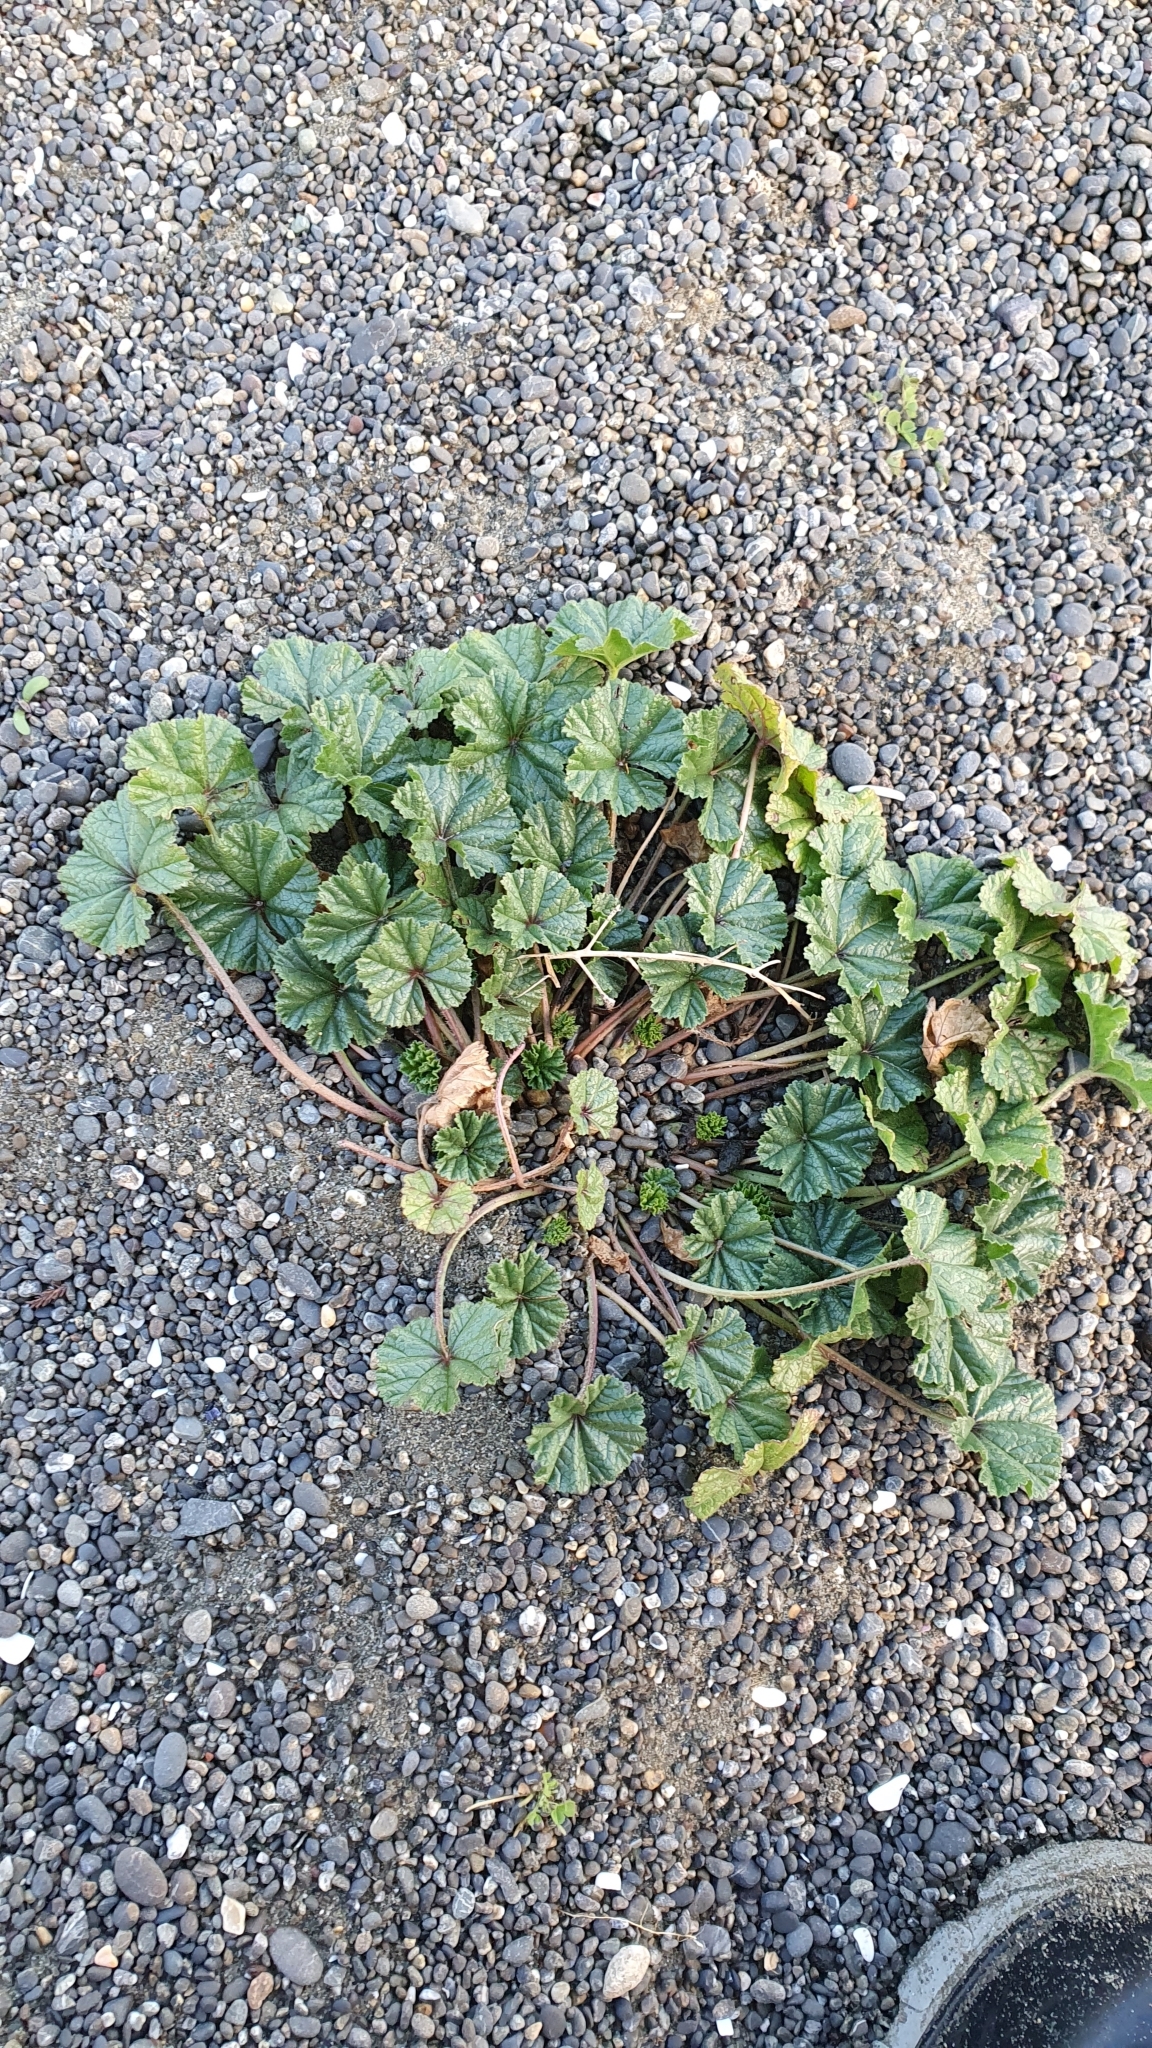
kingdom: Plantae
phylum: Tracheophyta
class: Magnoliopsida
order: Malvales
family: Malvaceae
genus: Malva
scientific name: Malva neglecta
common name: Common mallow
